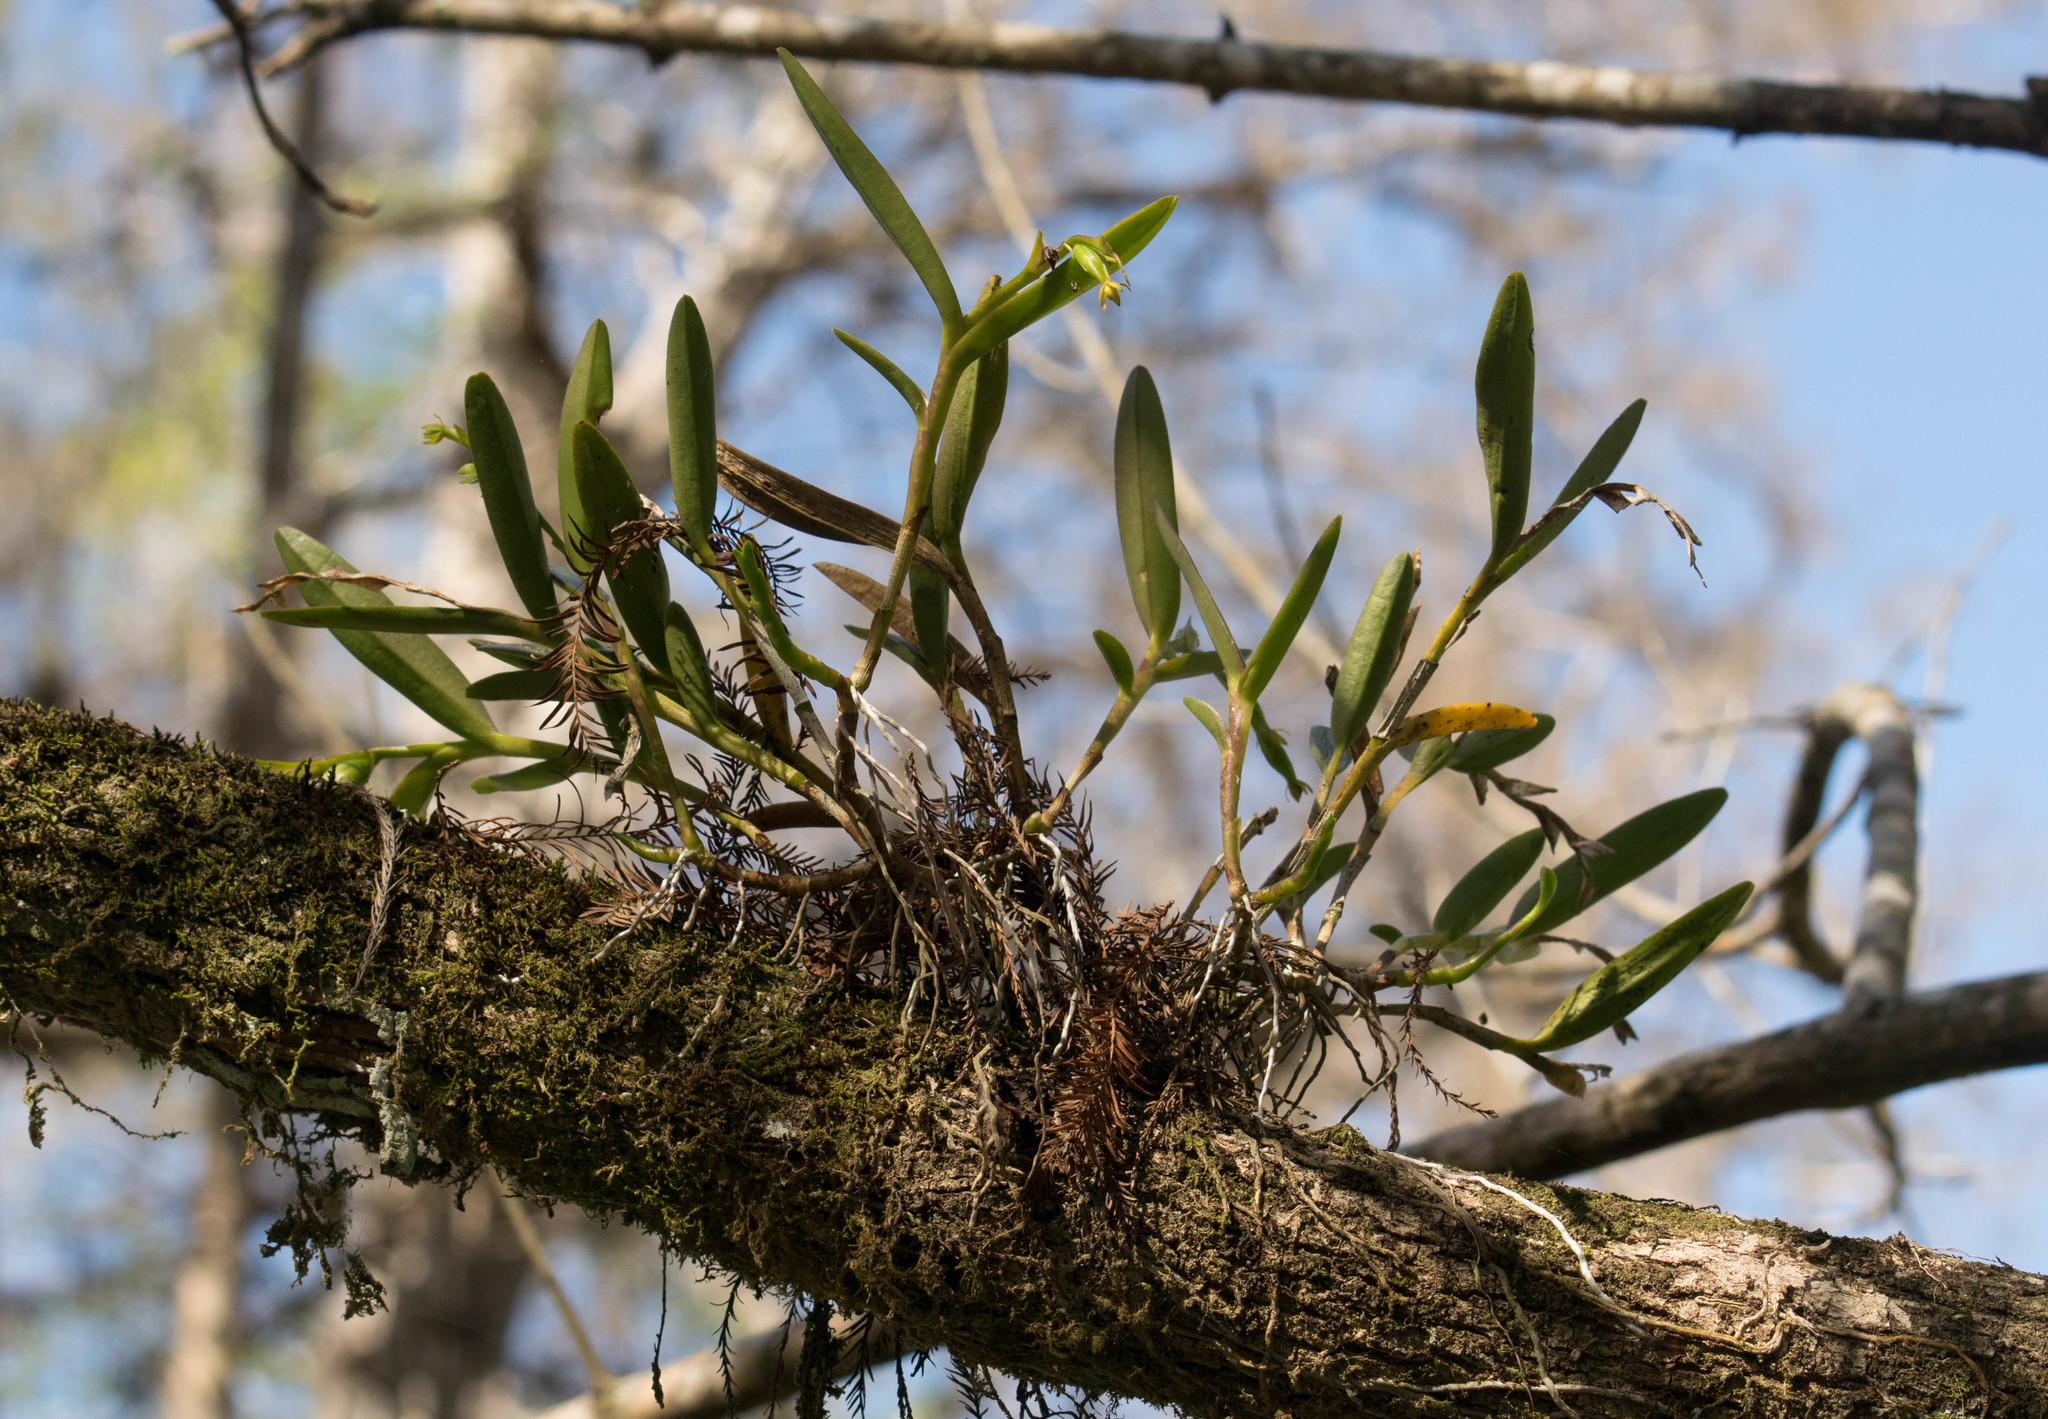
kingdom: Plantae
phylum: Tracheophyta
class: Liliopsida
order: Asparagales
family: Orchidaceae
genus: Epidendrum
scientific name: Epidendrum rigidum
